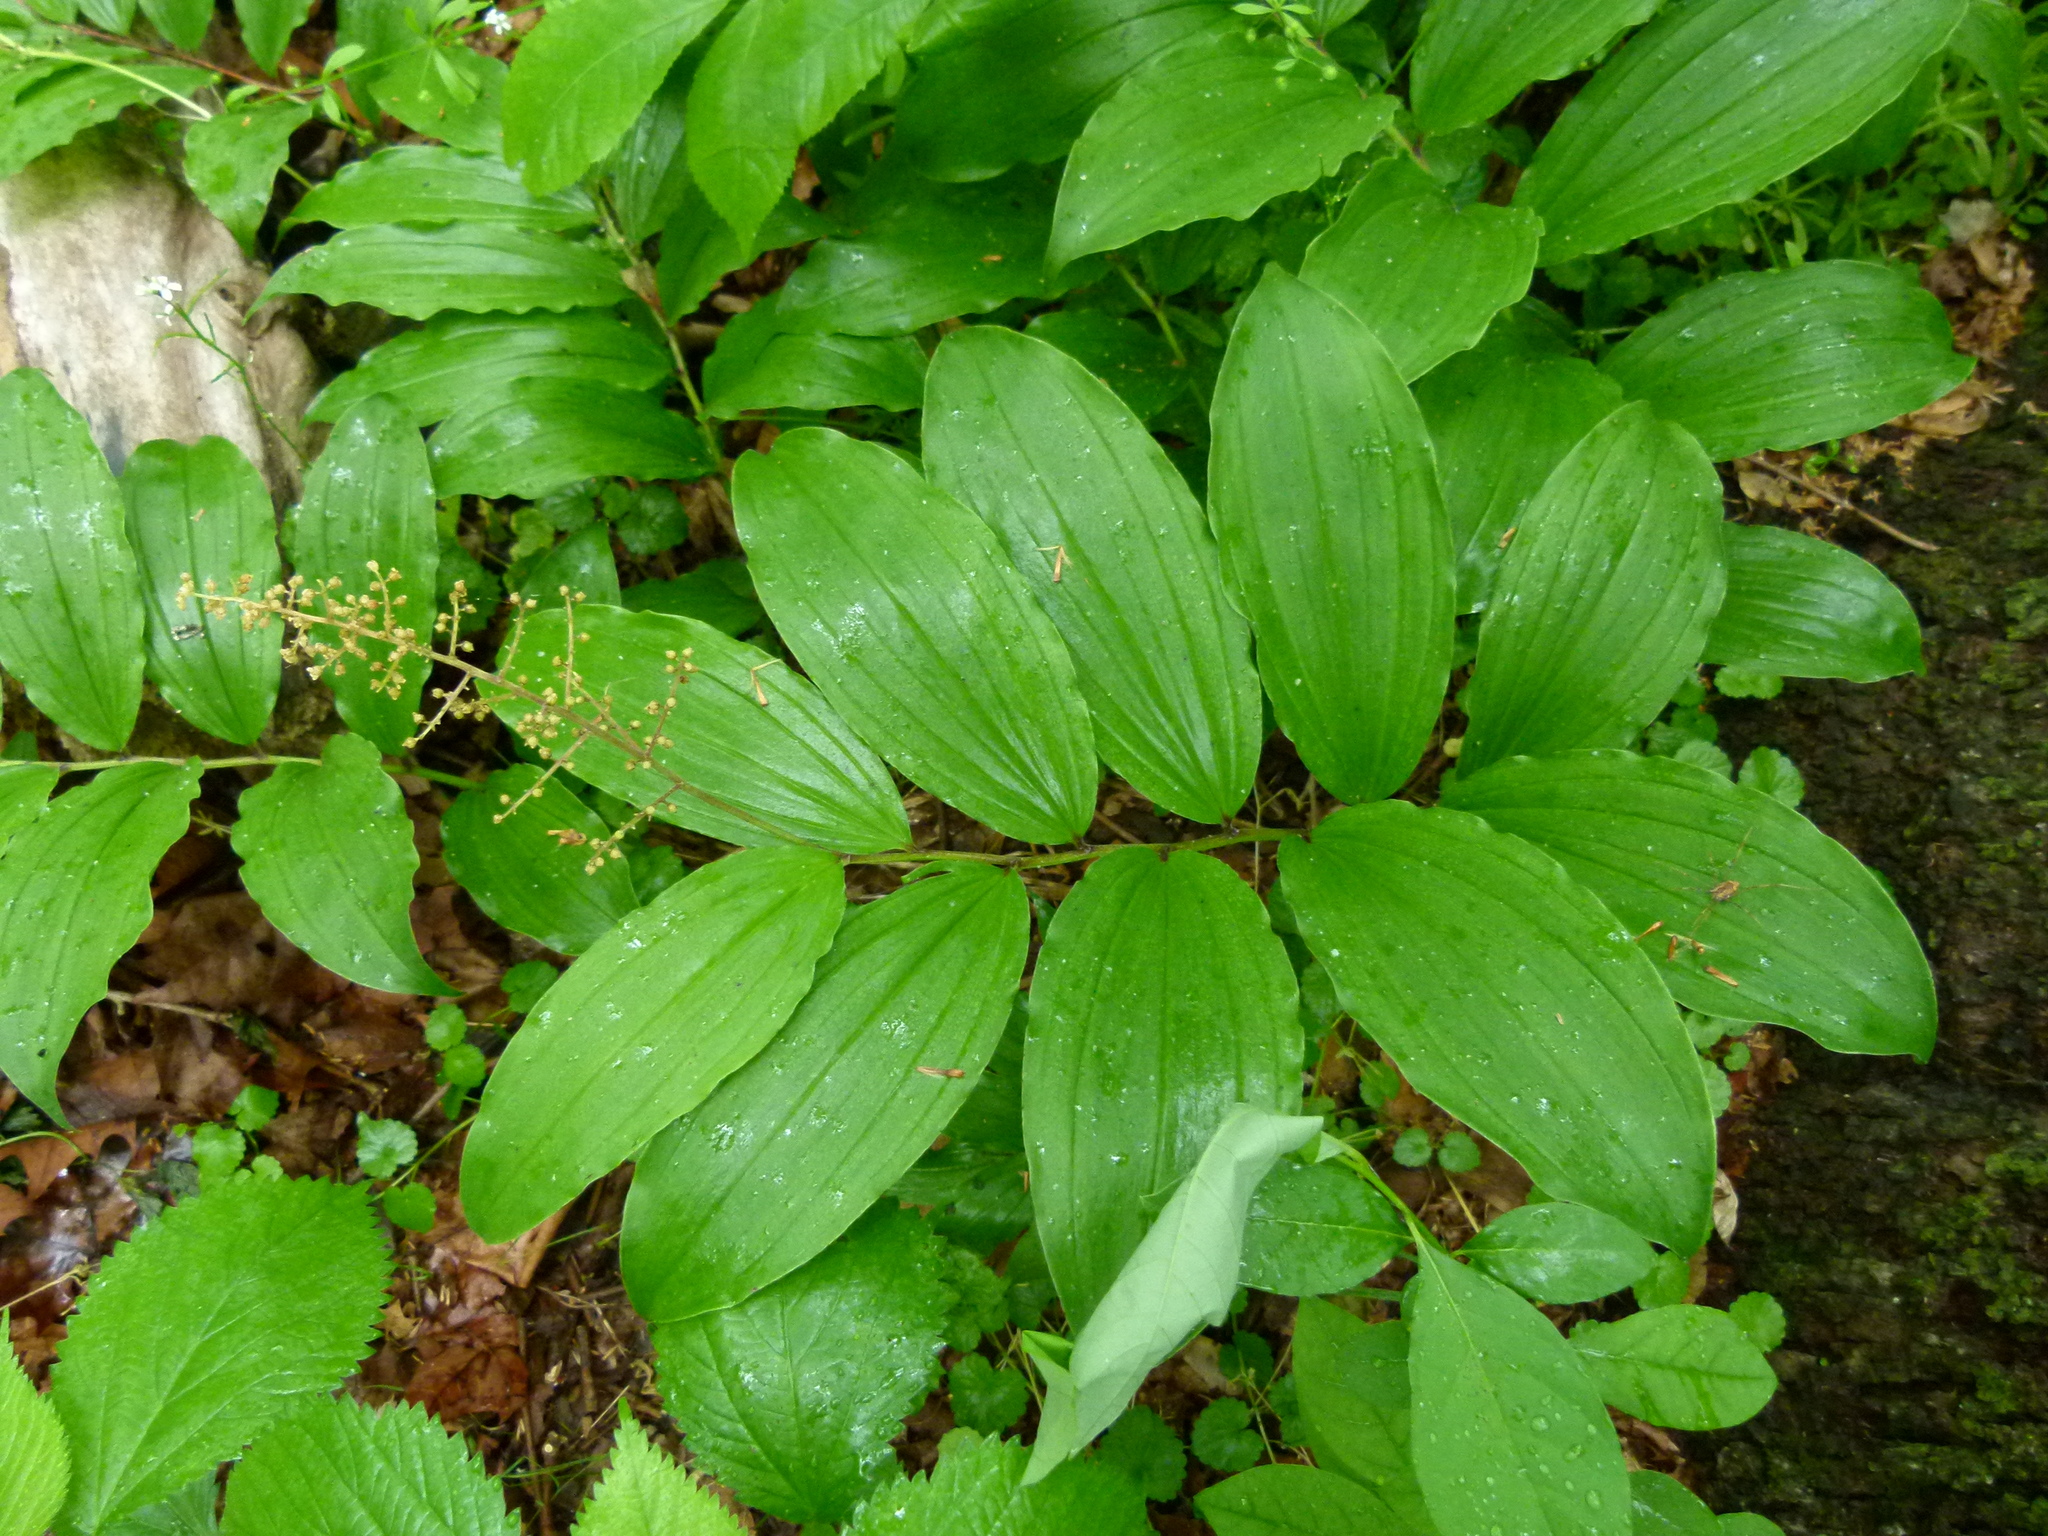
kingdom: Plantae
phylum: Tracheophyta
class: Liliopsida
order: Asparagales
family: Asparagaceae
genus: Maianthemum
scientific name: Maianthemum racemosum
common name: False spikenard
